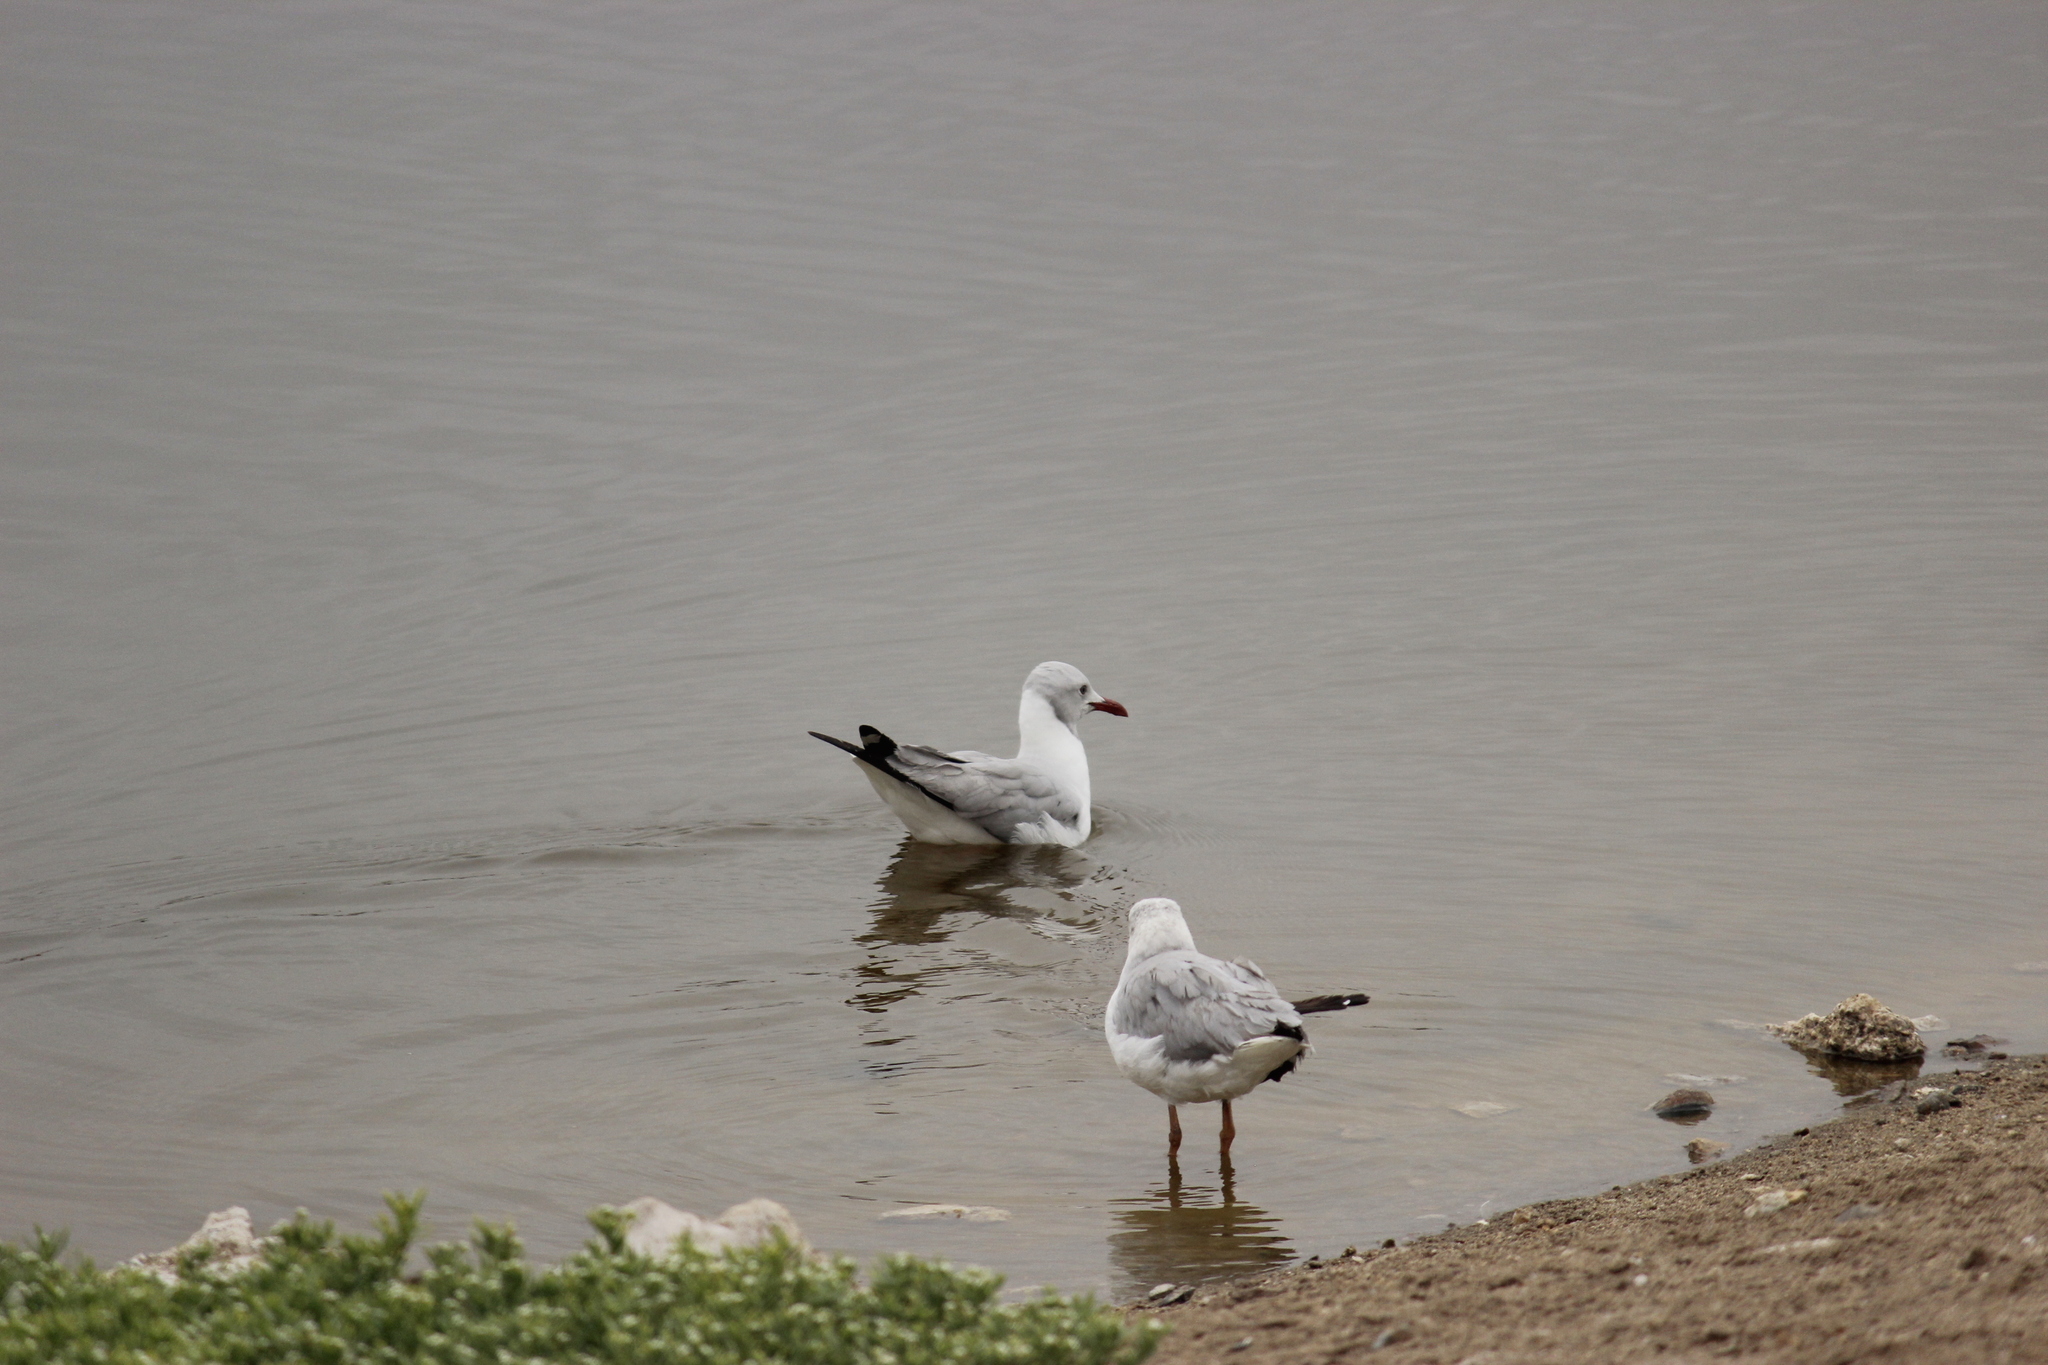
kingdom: Animalia
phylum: Chordata
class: Aves
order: Charadriiformes
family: Laridae
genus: Chroicocephalus
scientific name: Chroicocephalus cirrocephalus
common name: Grey-headed gull
